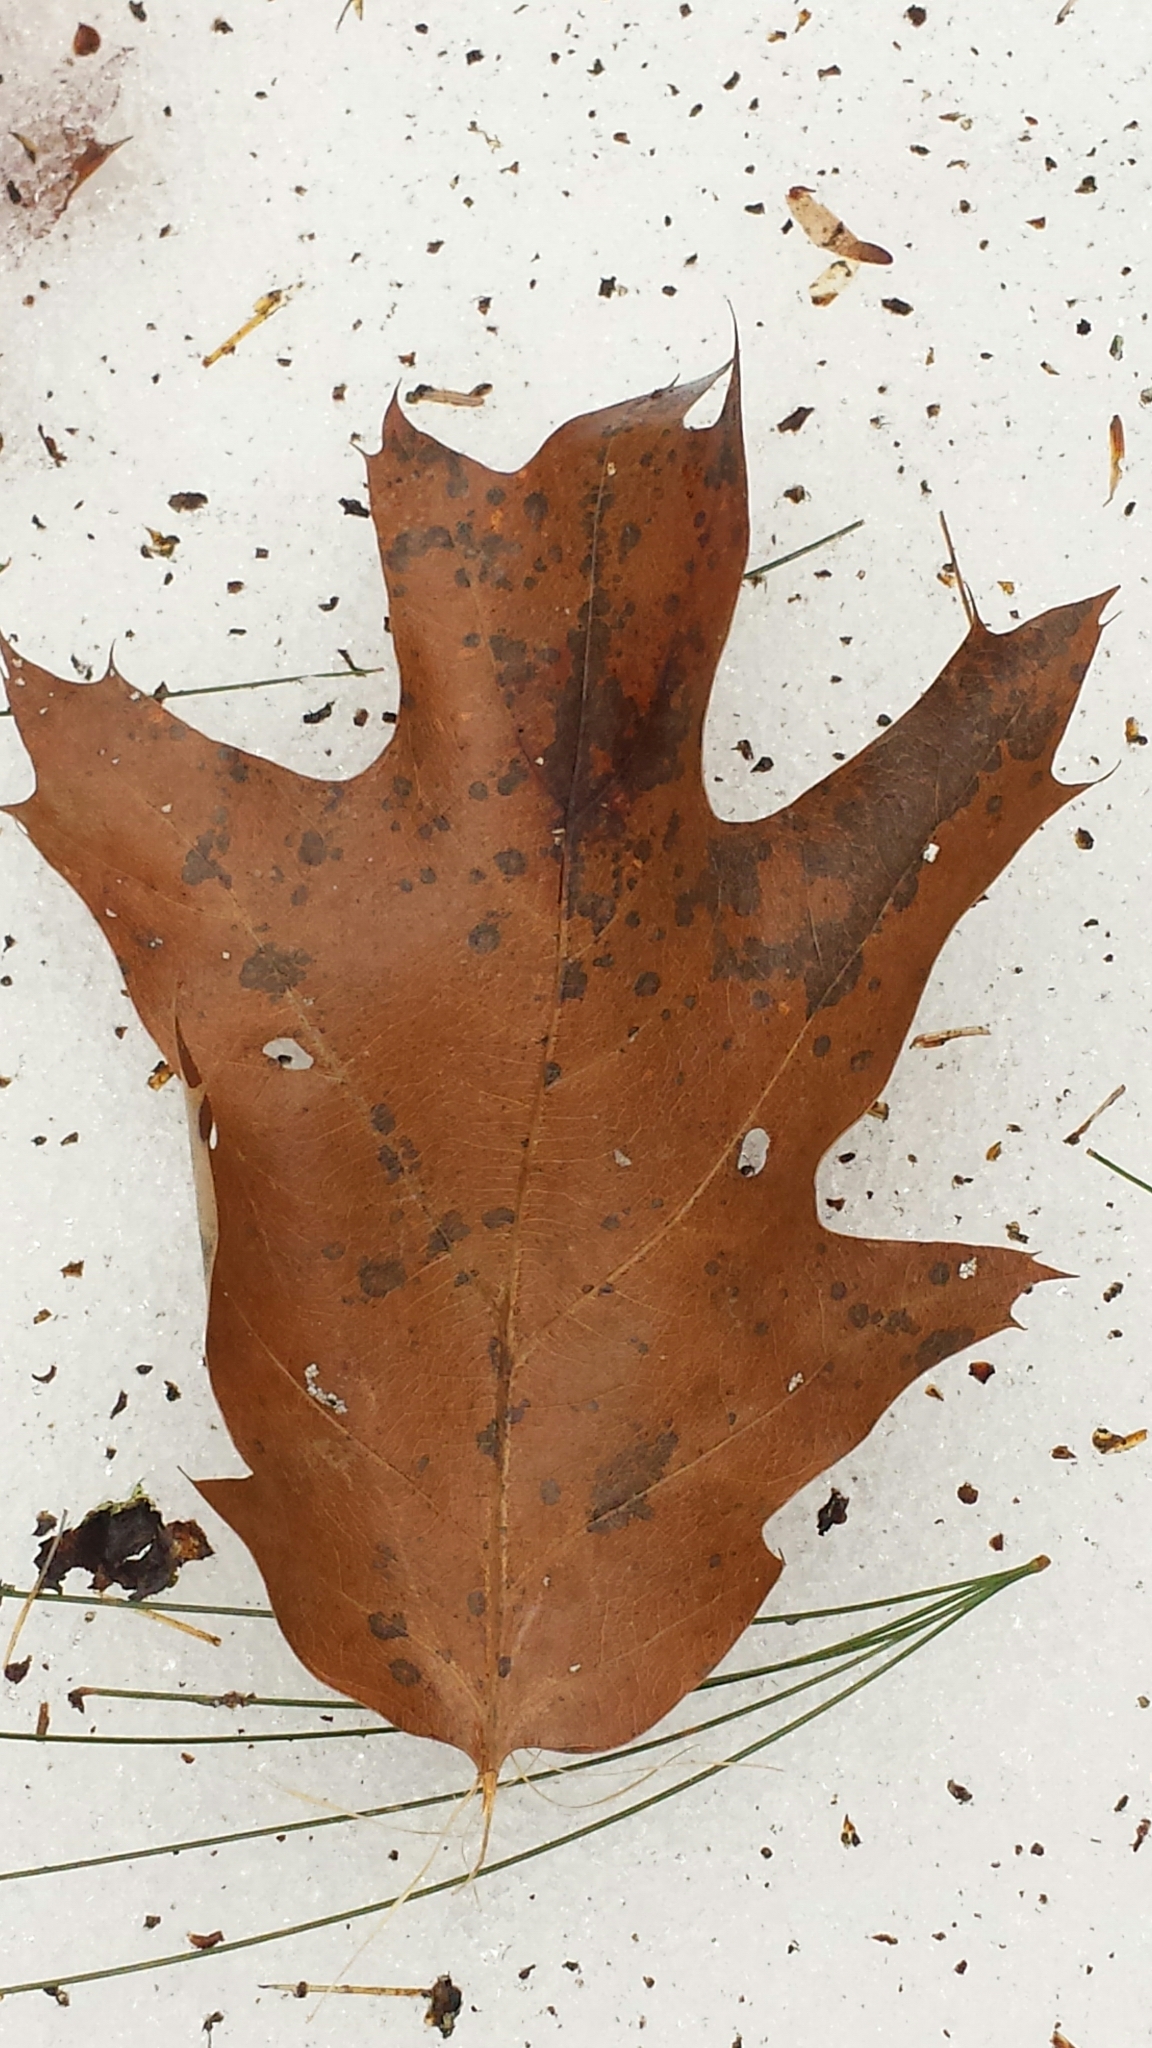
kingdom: Plantae
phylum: Tracheophyta
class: Magnoliopsida
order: Fagales
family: Fagaceae
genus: Quercus
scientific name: Quercus rubra
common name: Red oak
